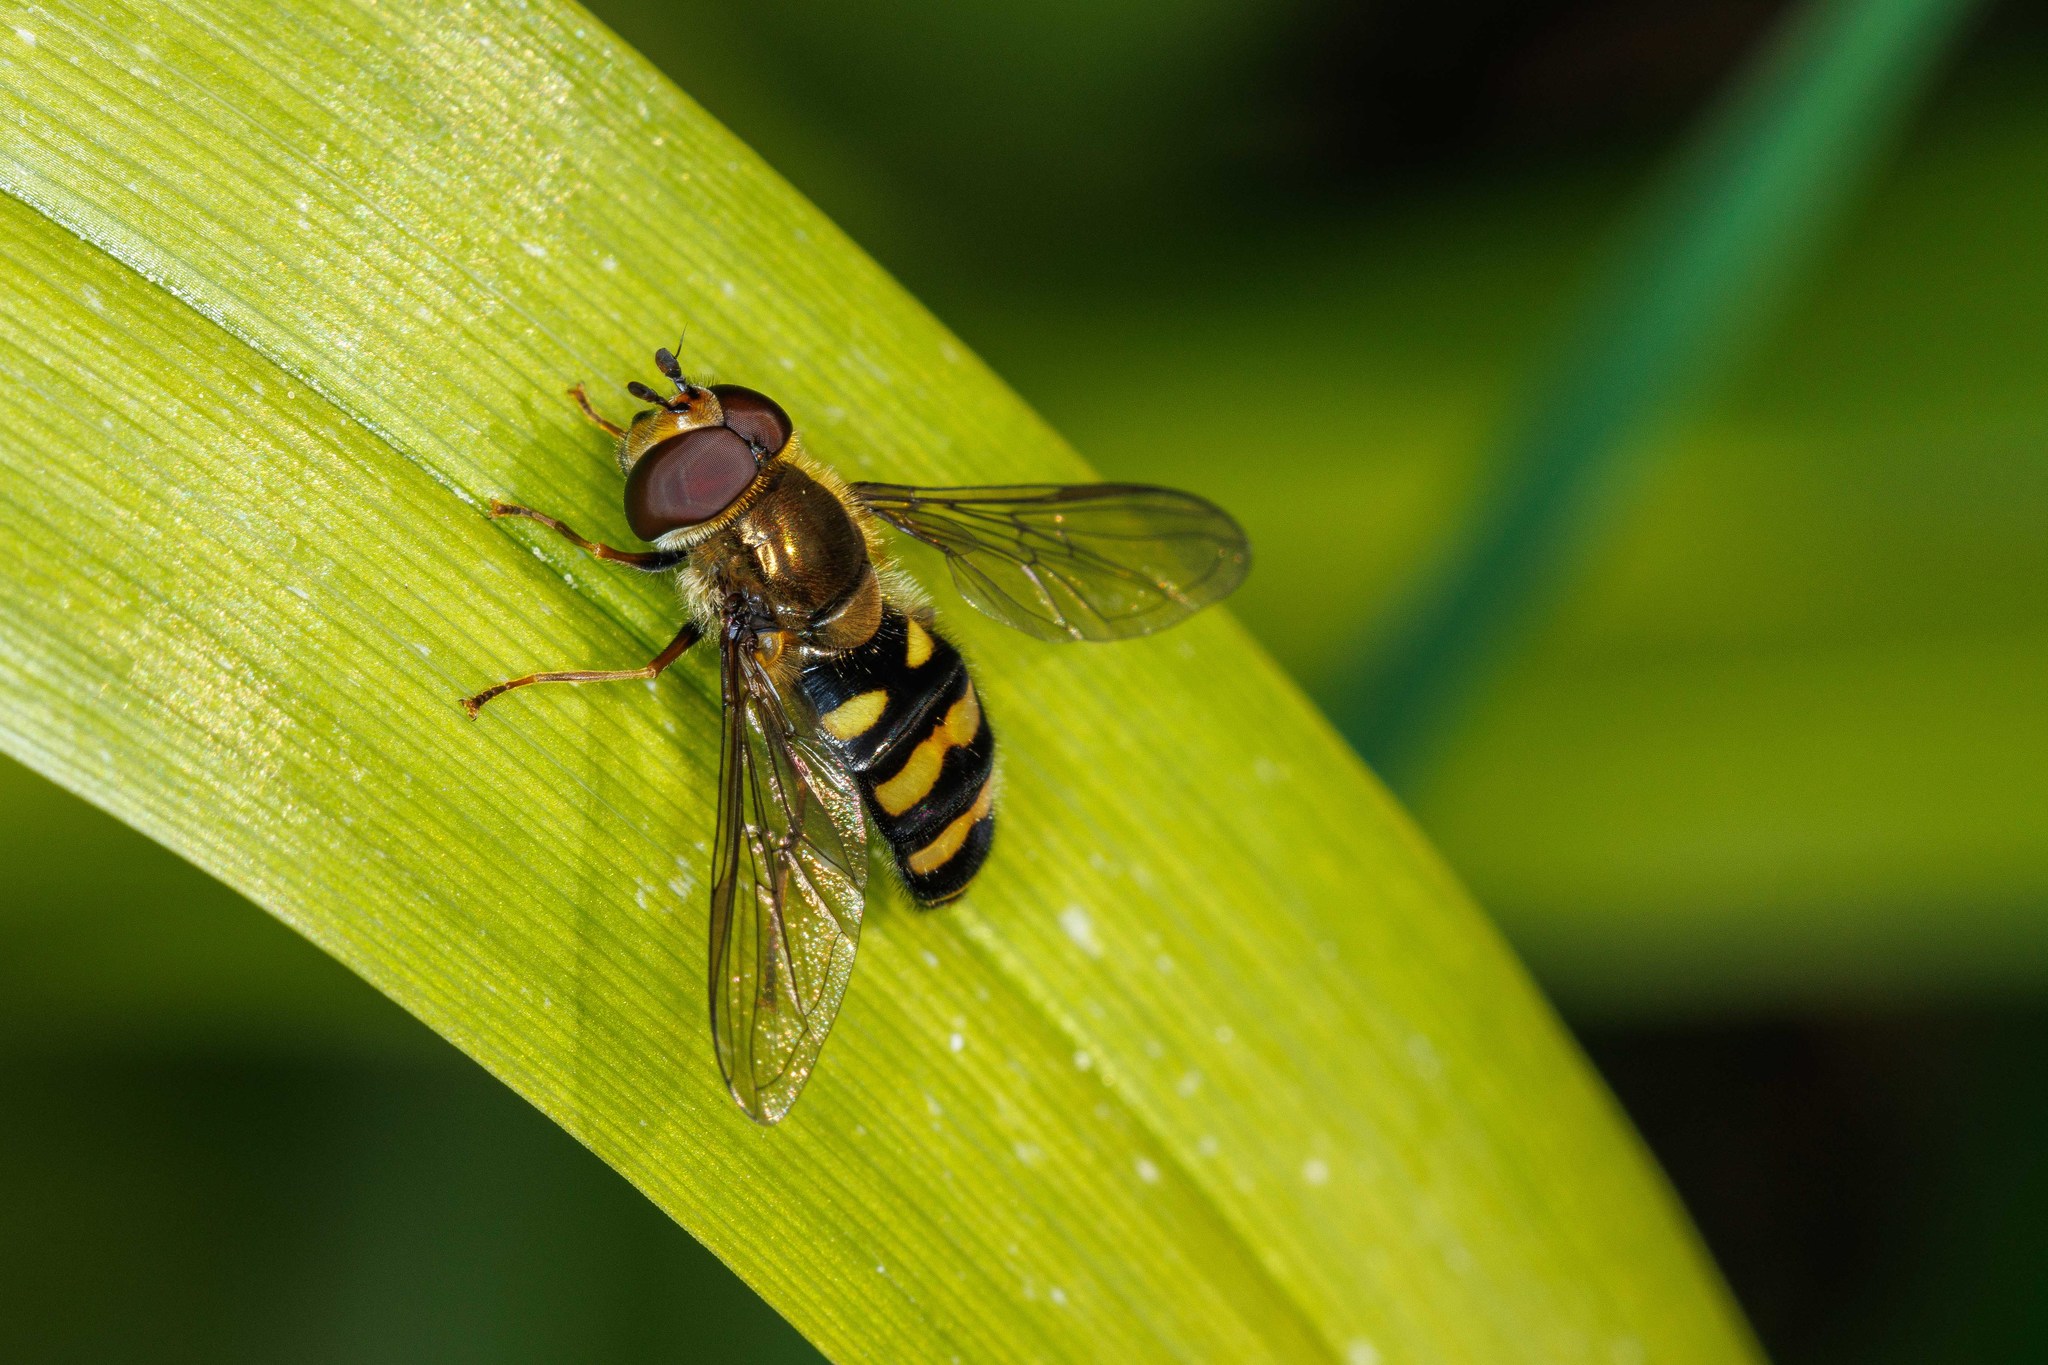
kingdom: Animalia
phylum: Arthropoda
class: Insecta
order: Diptera
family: Syrphidae
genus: Eupeodes
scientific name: Eupeodes fumipennis
